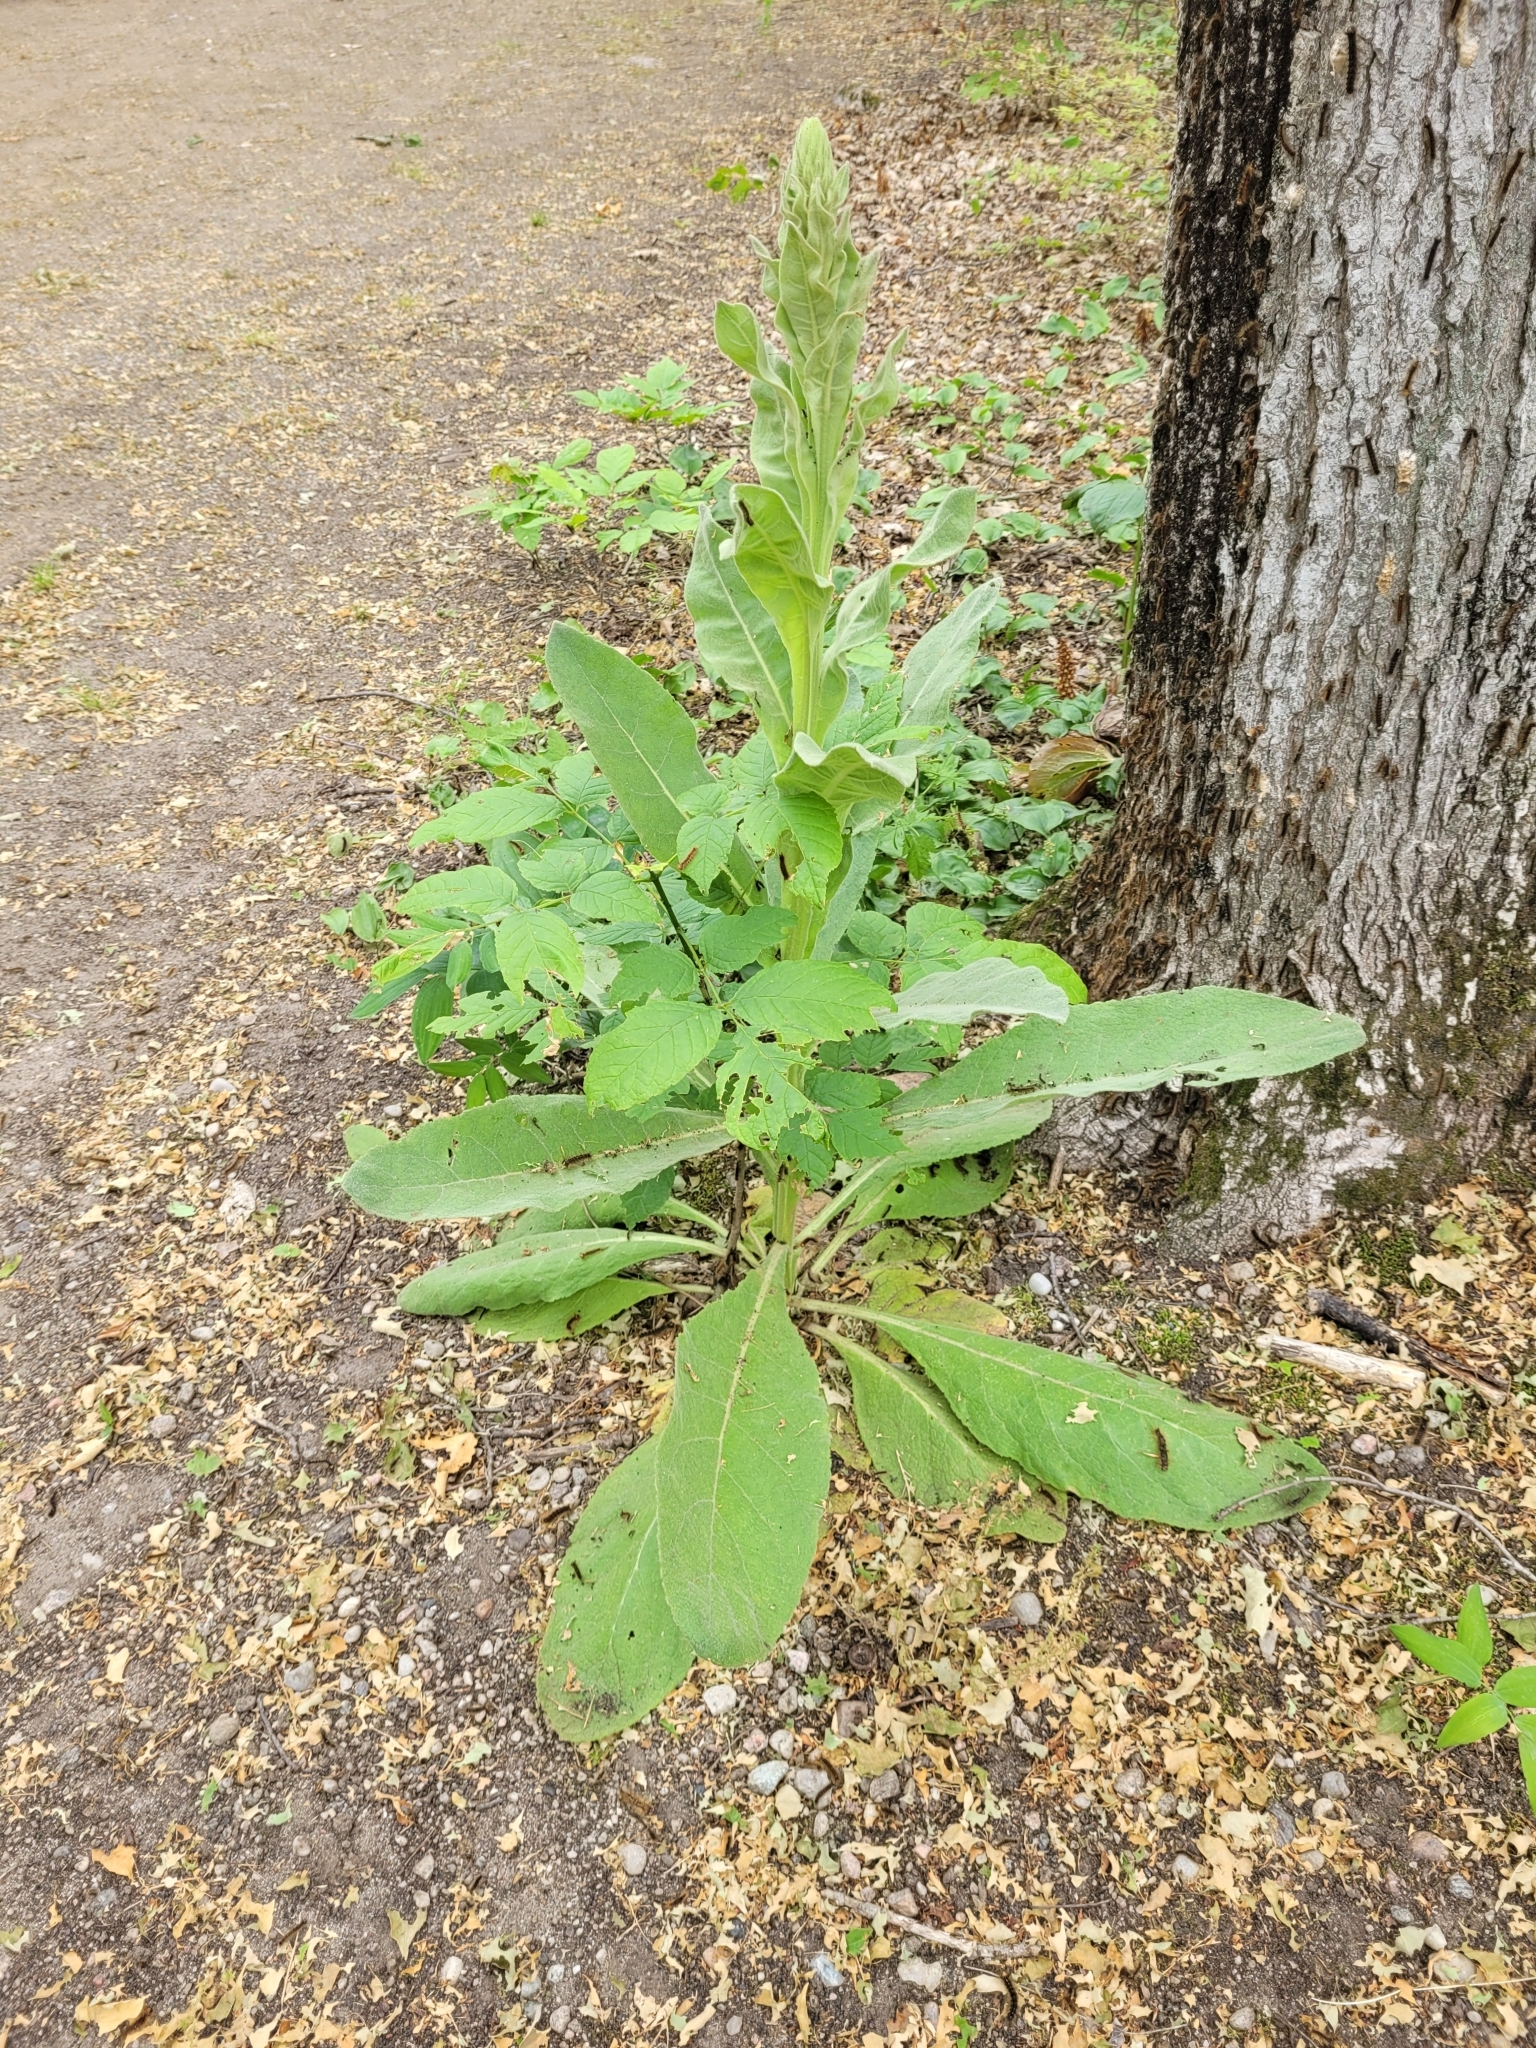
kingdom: Plantae
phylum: Tracheophyta
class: Magnoliopsida
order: Lamiales
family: Scrophulariaceae
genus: Verbascum
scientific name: Verbascum thapsus
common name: Common mullein
